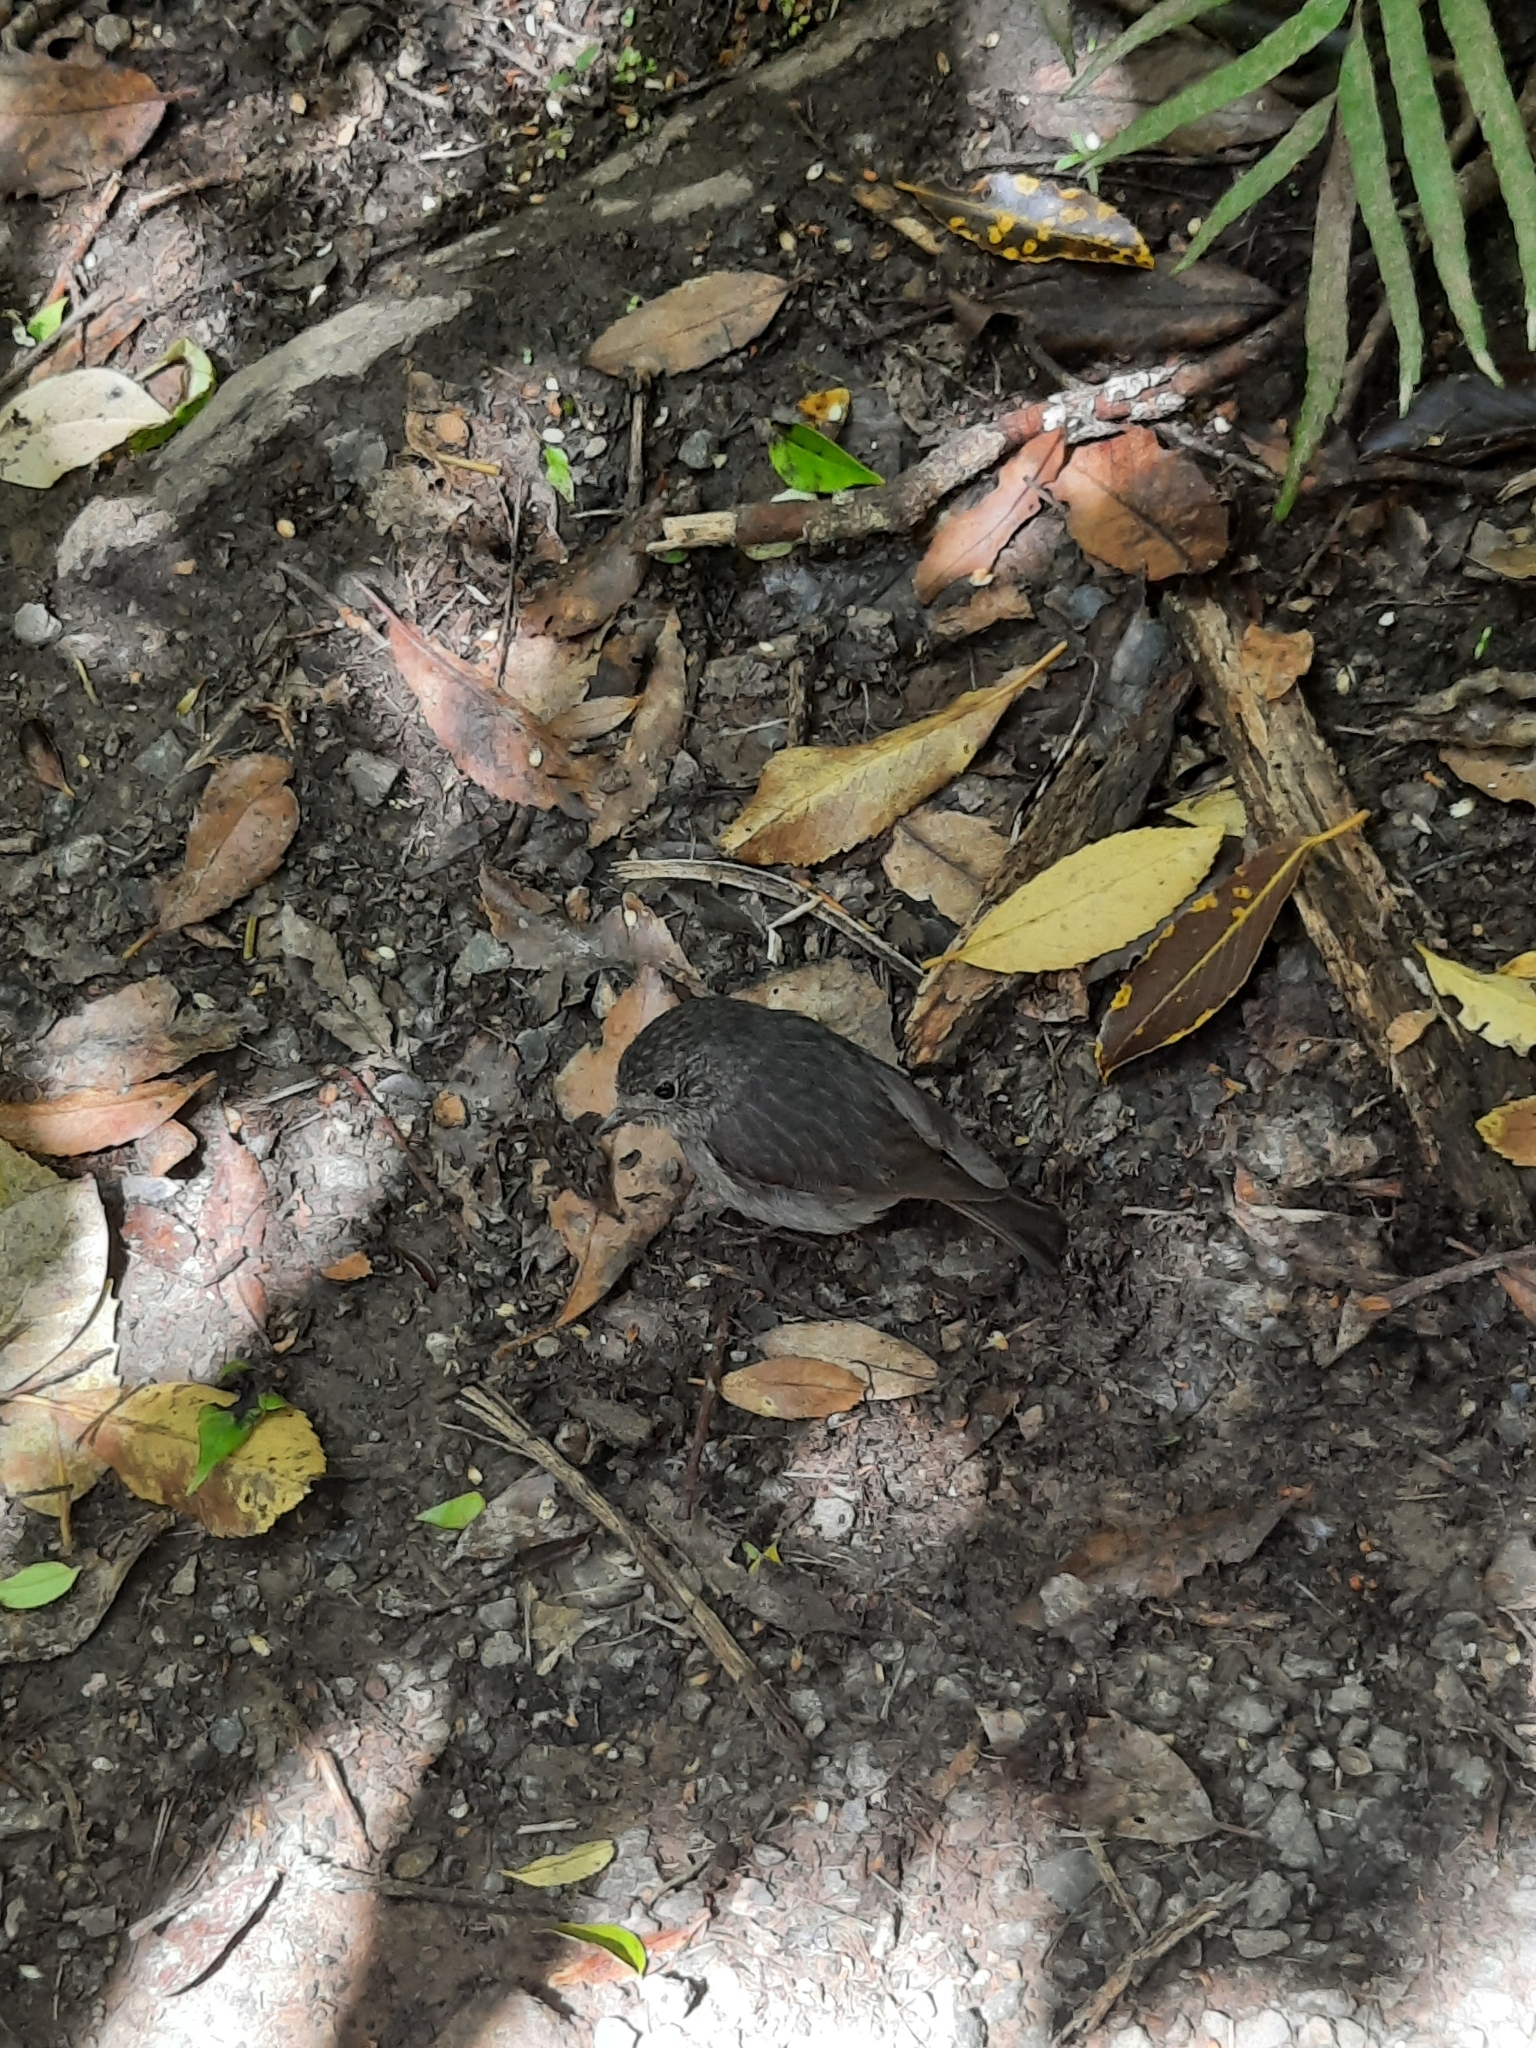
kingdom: Animalia
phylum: Chordata
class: Aves
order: Passeriformes
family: Petroicidae
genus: Petroica
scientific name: Petroica australis
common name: New zealand robin
